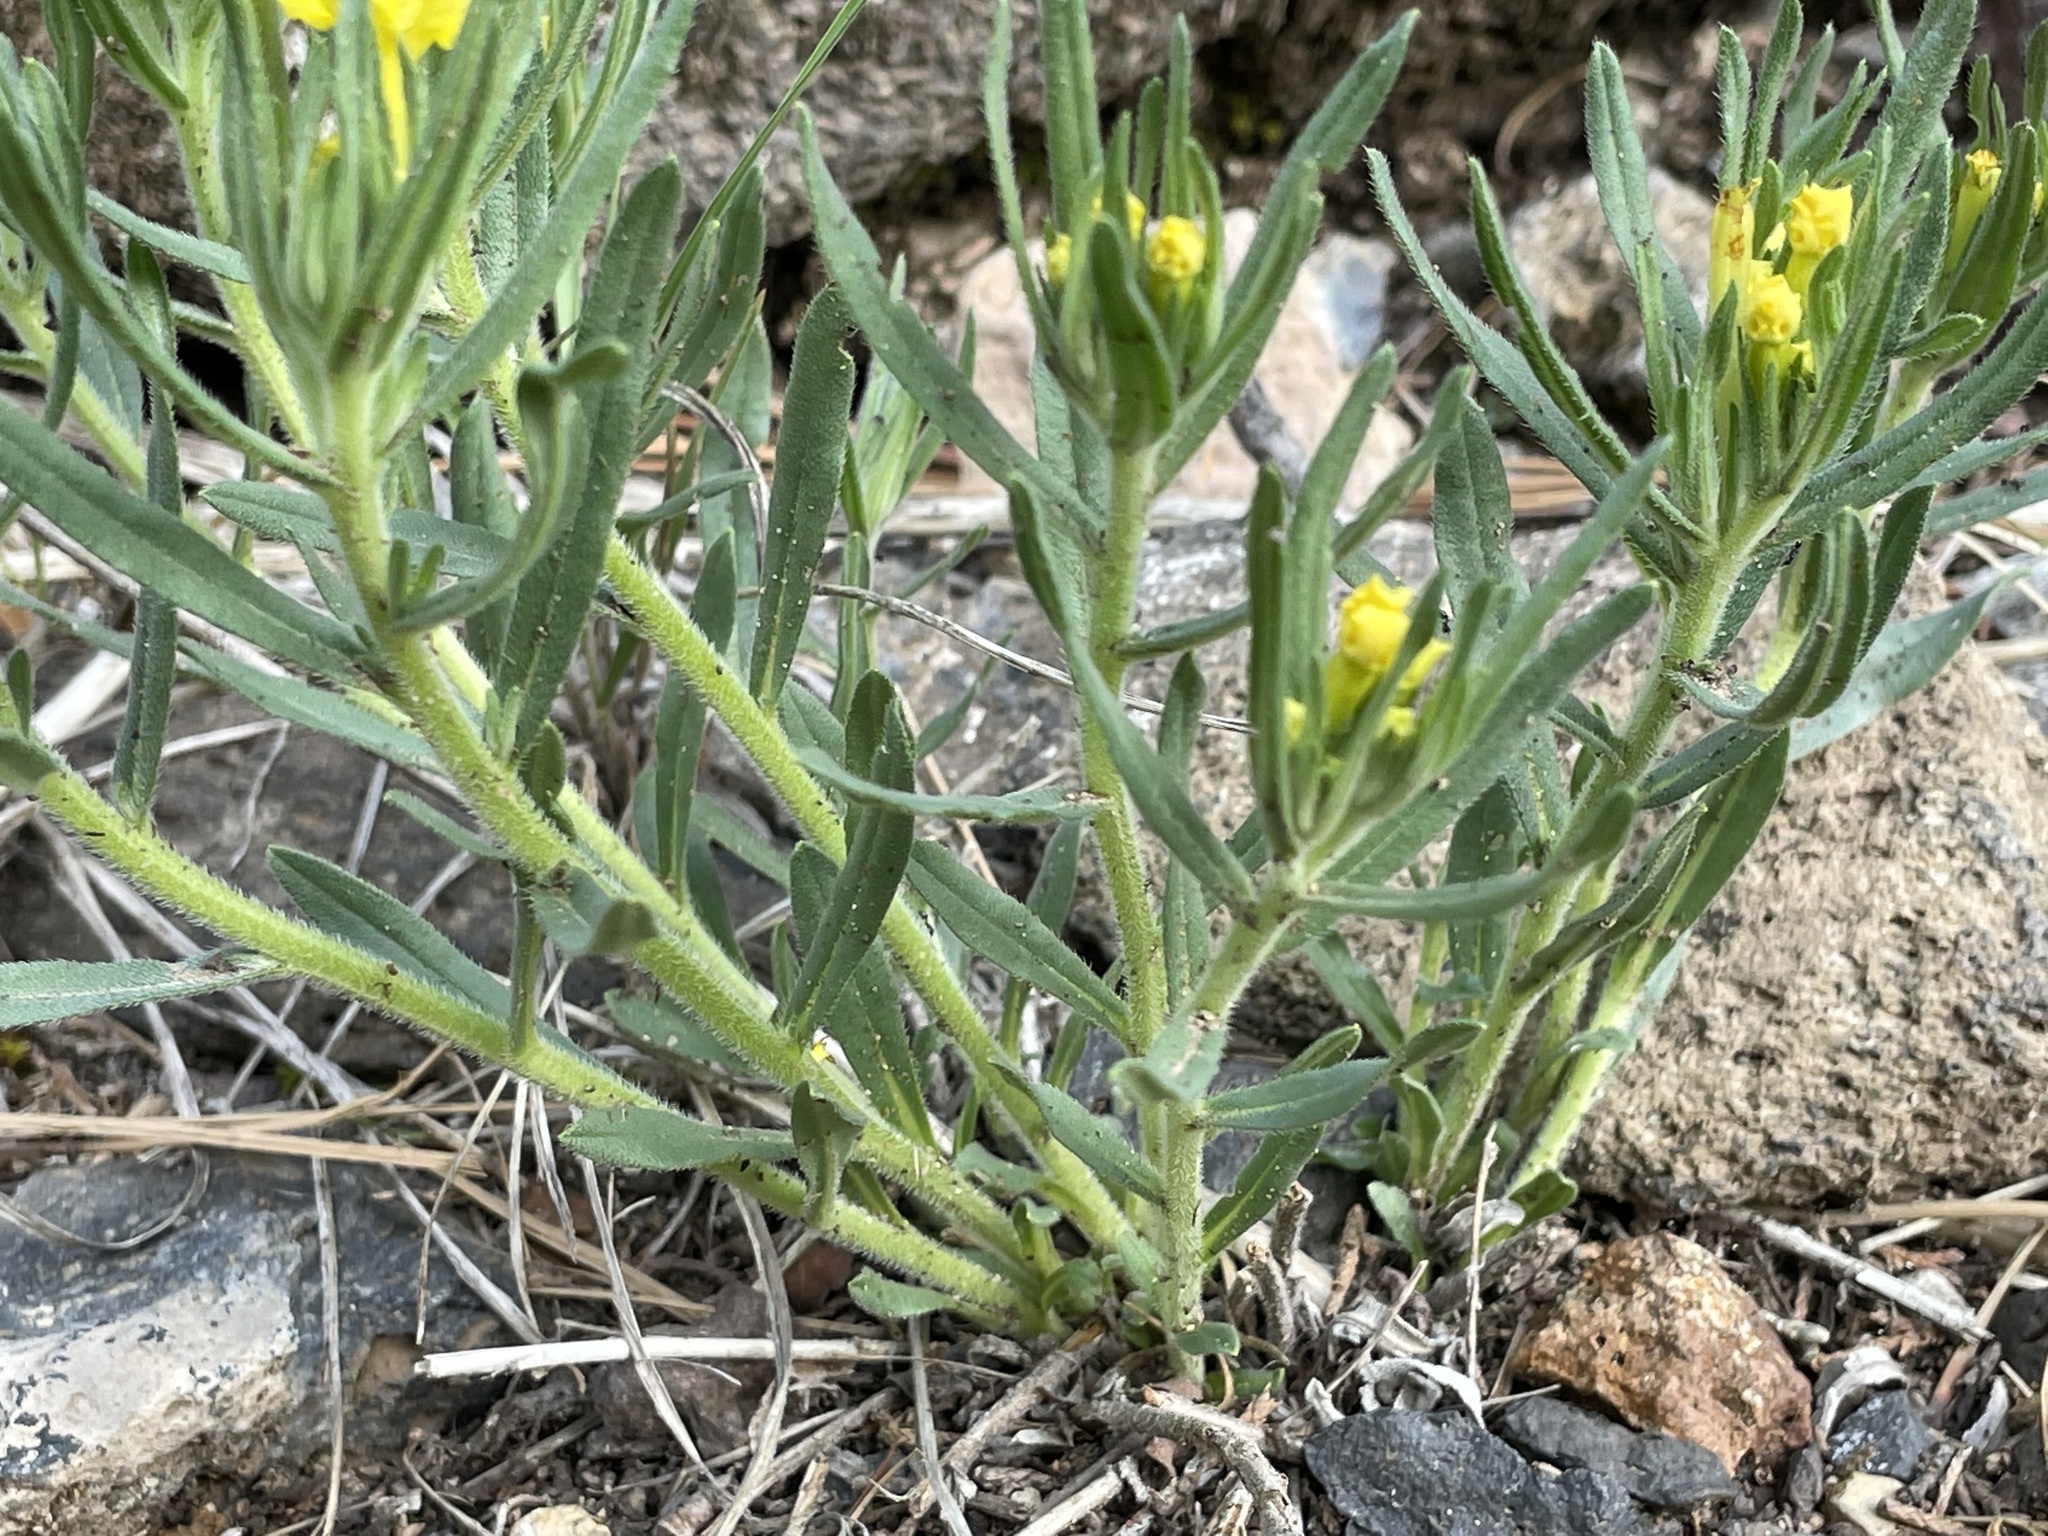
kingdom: Plantae
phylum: Tracheophyta
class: Magnoliopsida
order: Boraginales
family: Boraginaceae
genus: Lithospermum
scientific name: Lithospermum incisum
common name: Fringed gromwell
